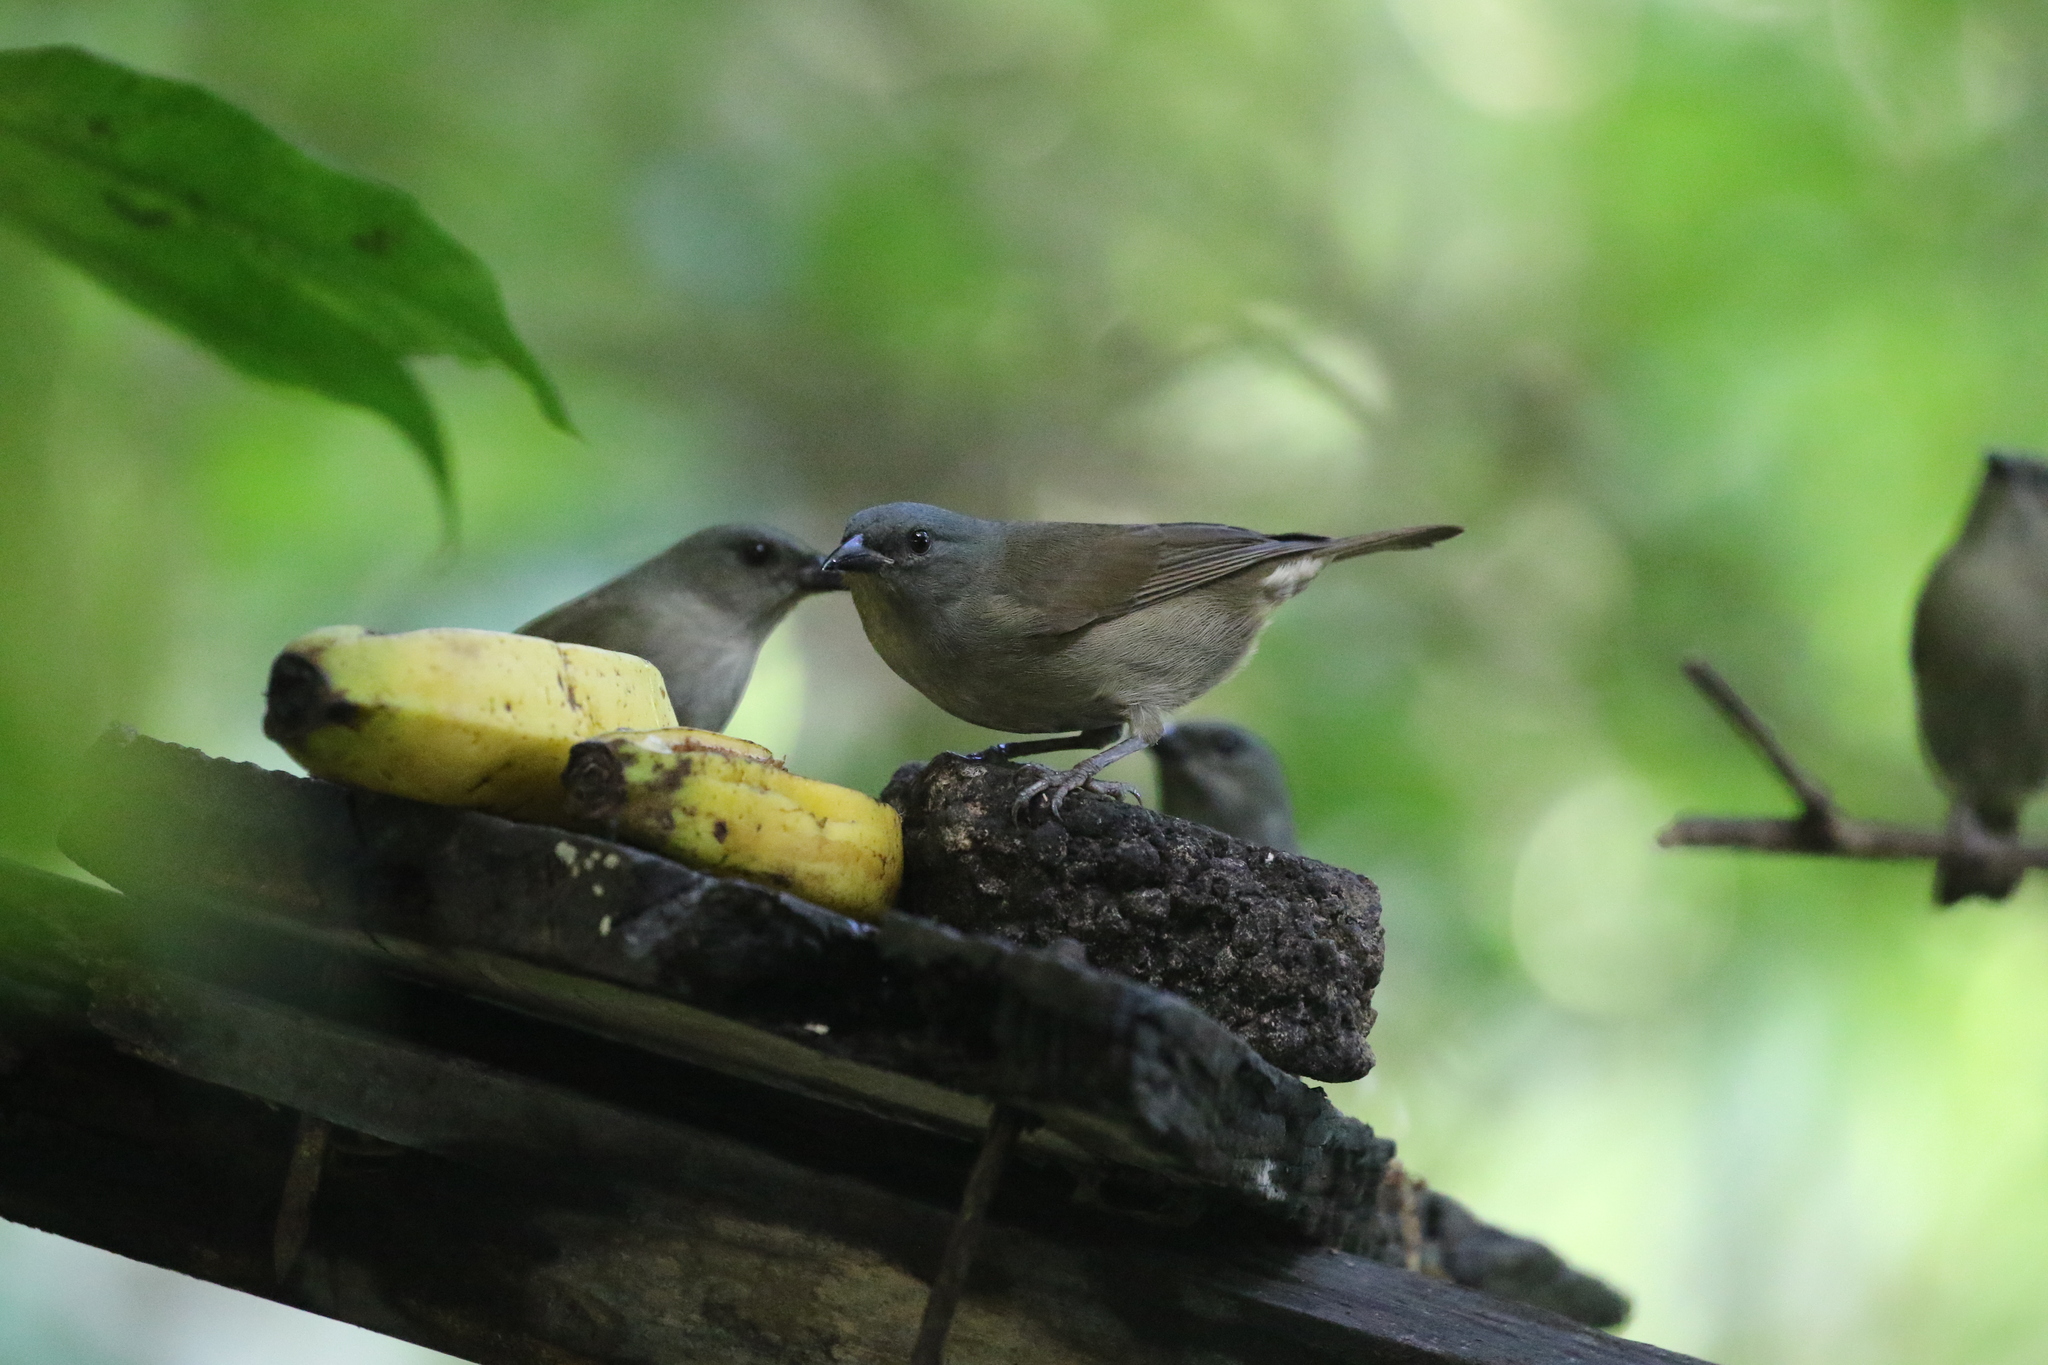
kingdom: Animalia
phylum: Chordata
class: Aves
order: Passeriformes
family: Thraupidae
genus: Euneornis
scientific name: Euneornis campestris
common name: Orangequit
